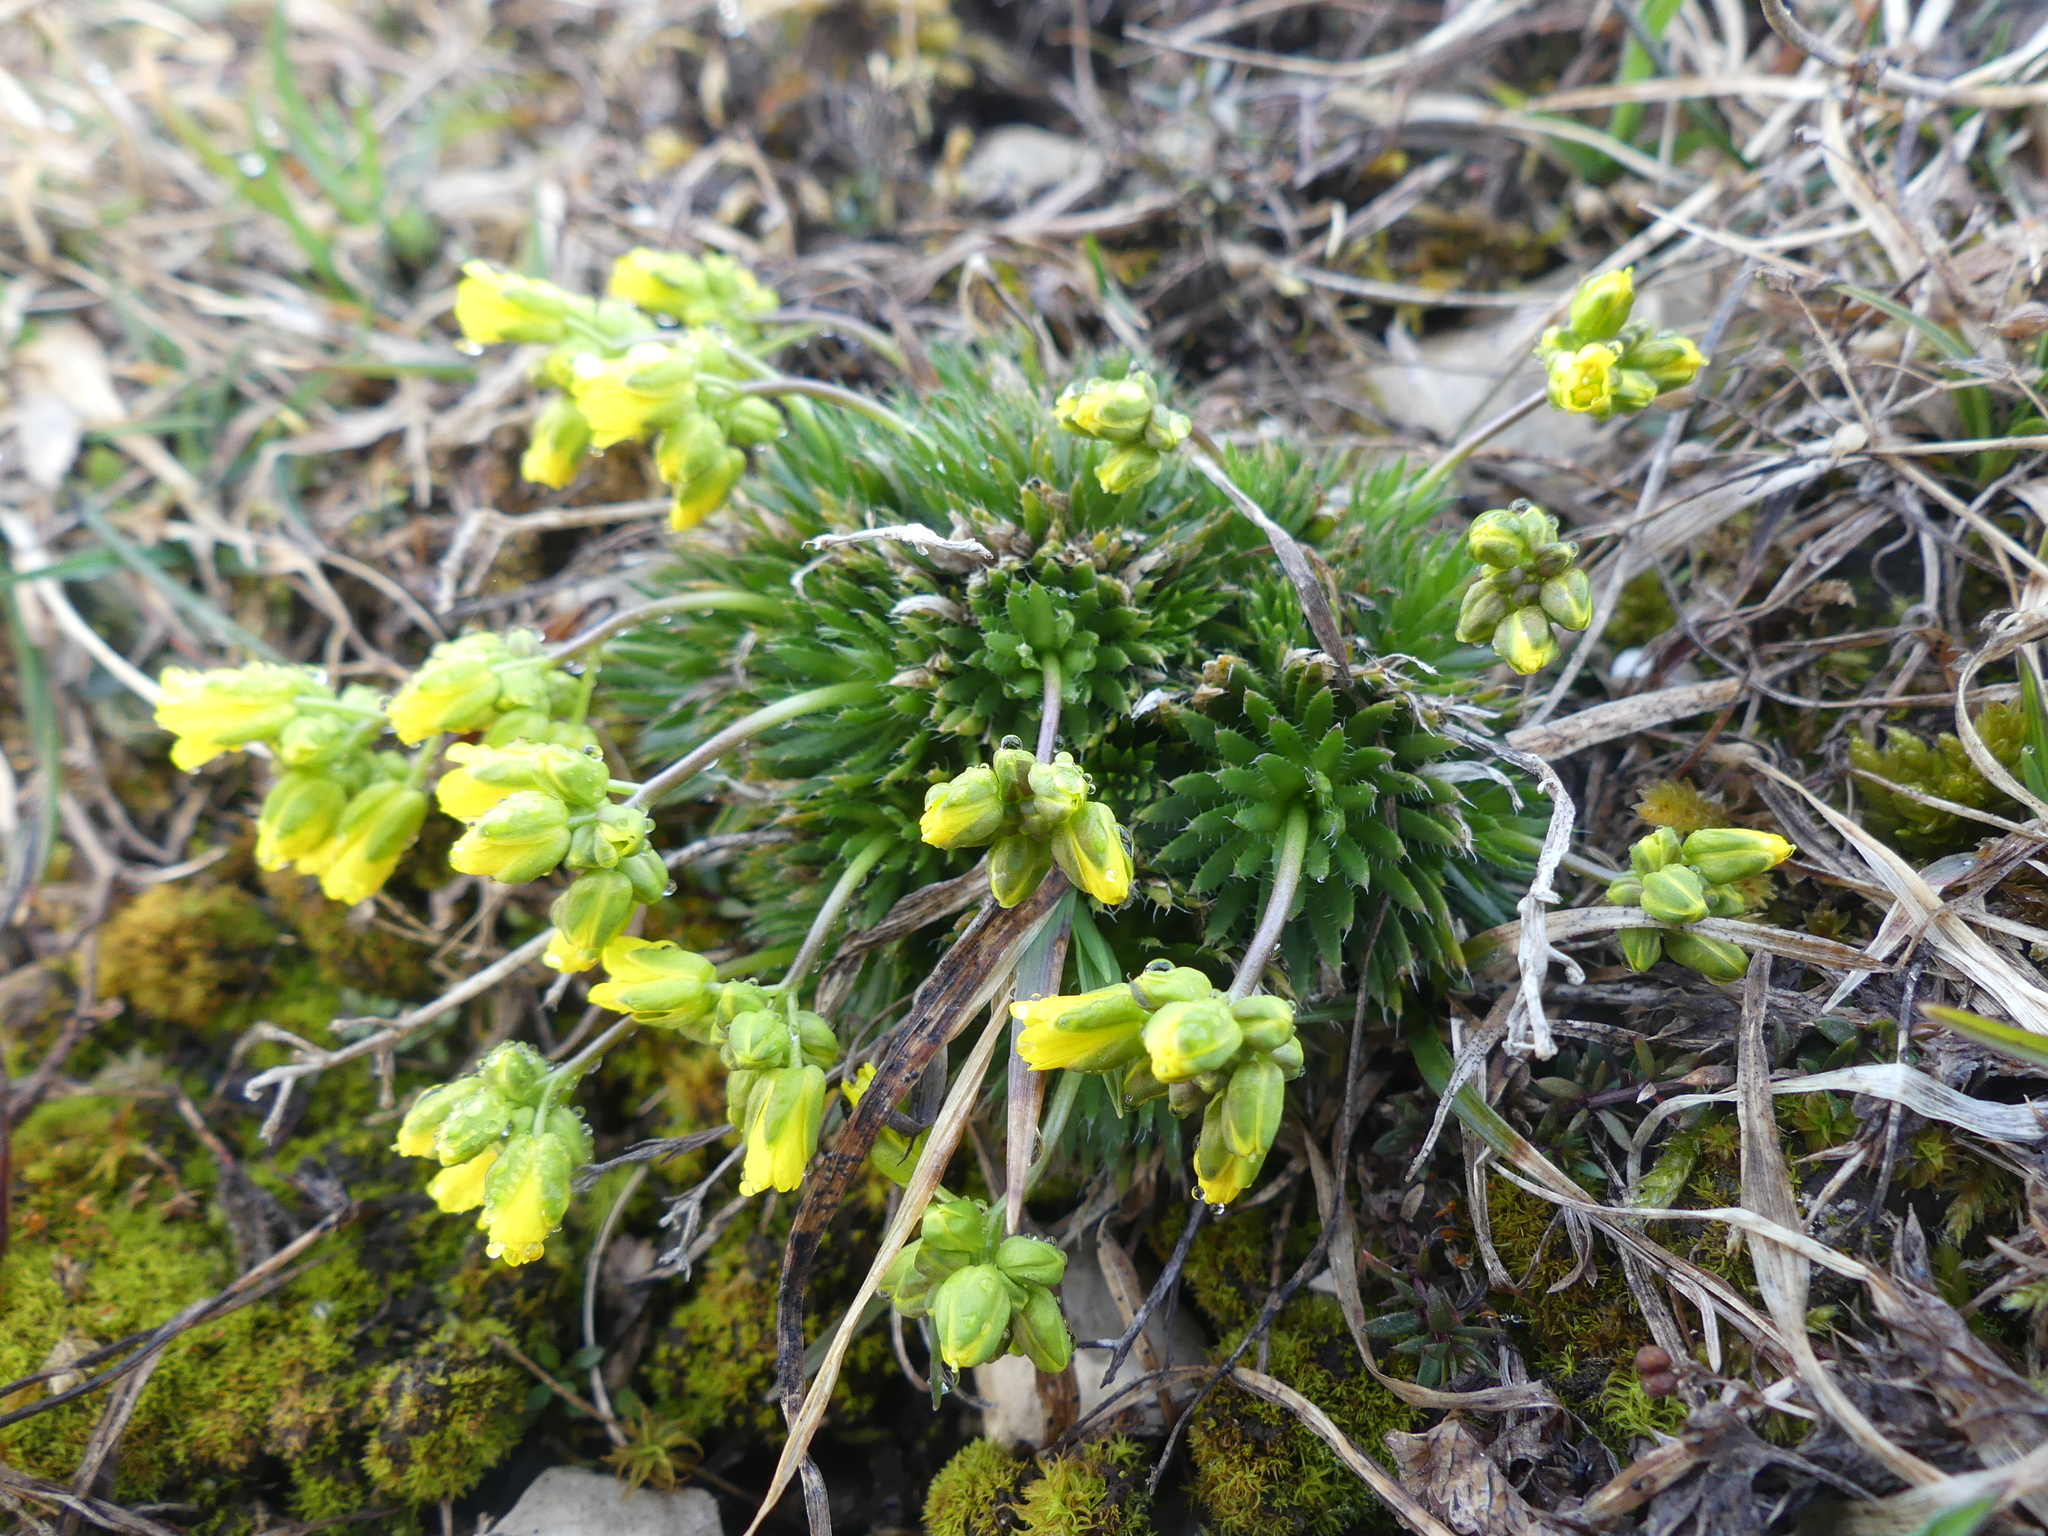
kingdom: Plantae
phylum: Tracheophyta
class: Magnoliopsida
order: Brassicales
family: Brassicaceae
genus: Draba
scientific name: Draba aizoides
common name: Yellow whitlowgrass
